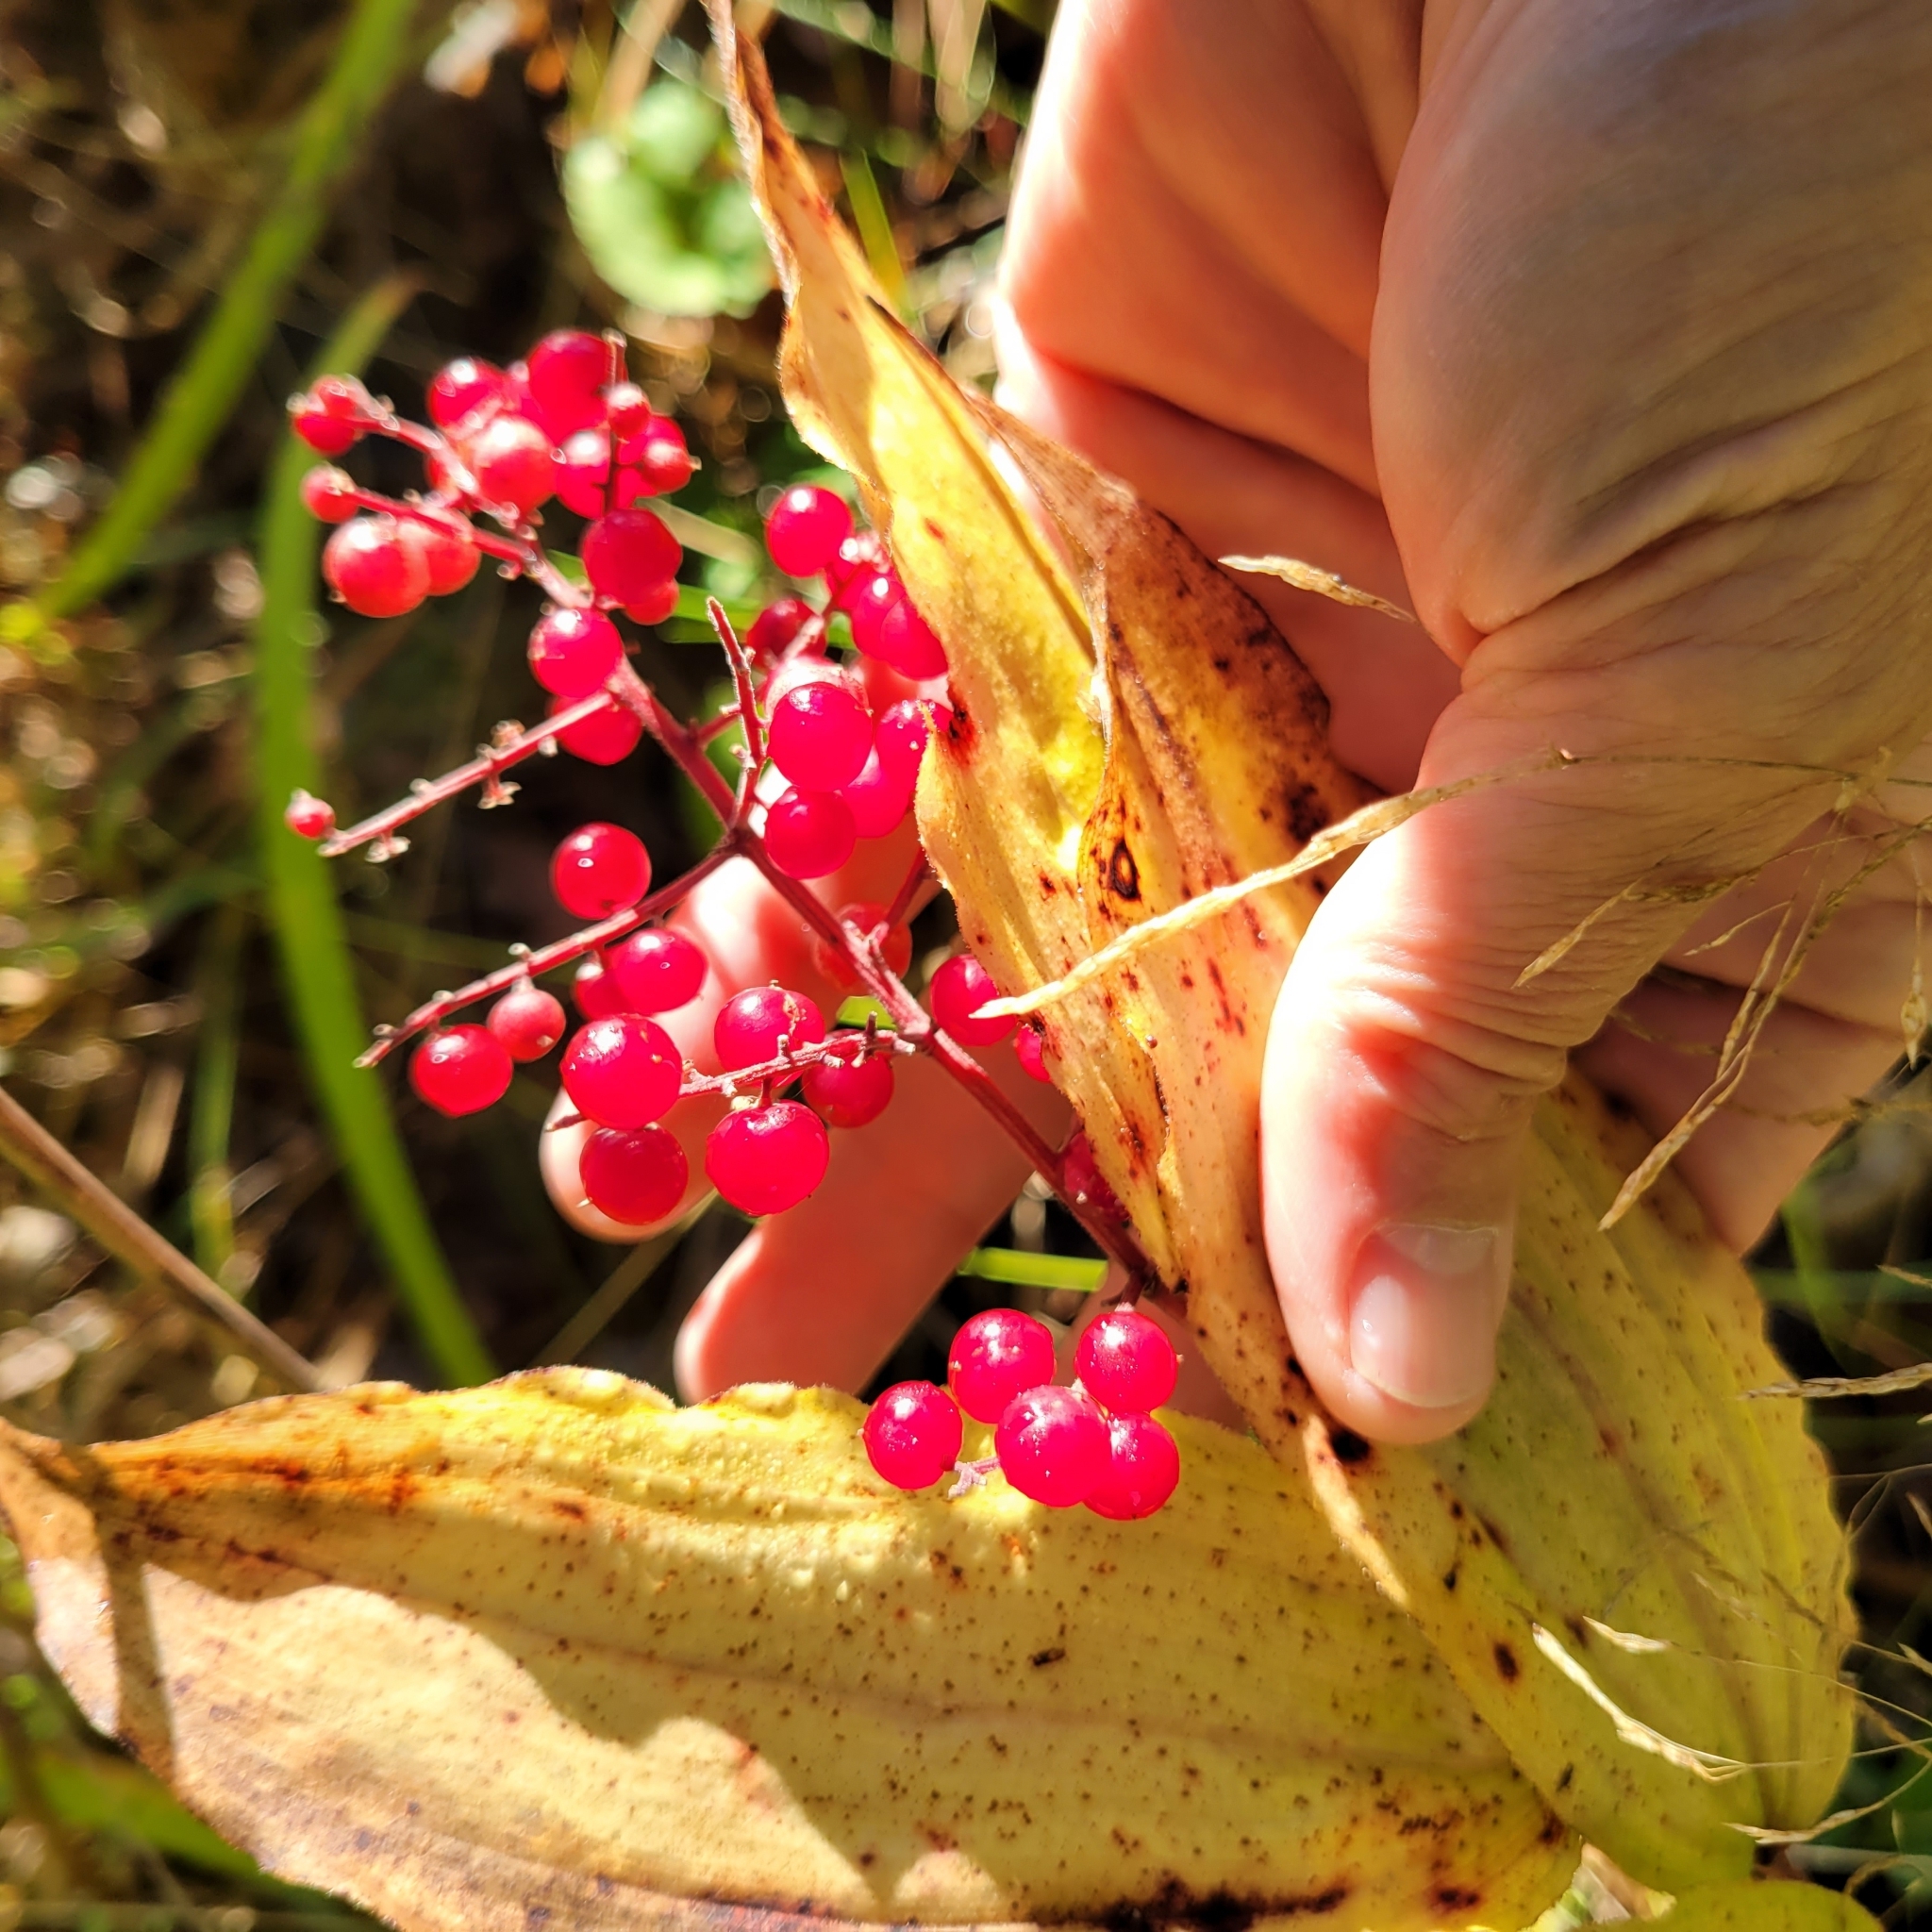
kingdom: Plantae
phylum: Tracheophyta
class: Liliopsida
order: Asparagales
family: Asparagaceae
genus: Maianthemum
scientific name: Maianthemum racemosum
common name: False spikenard
